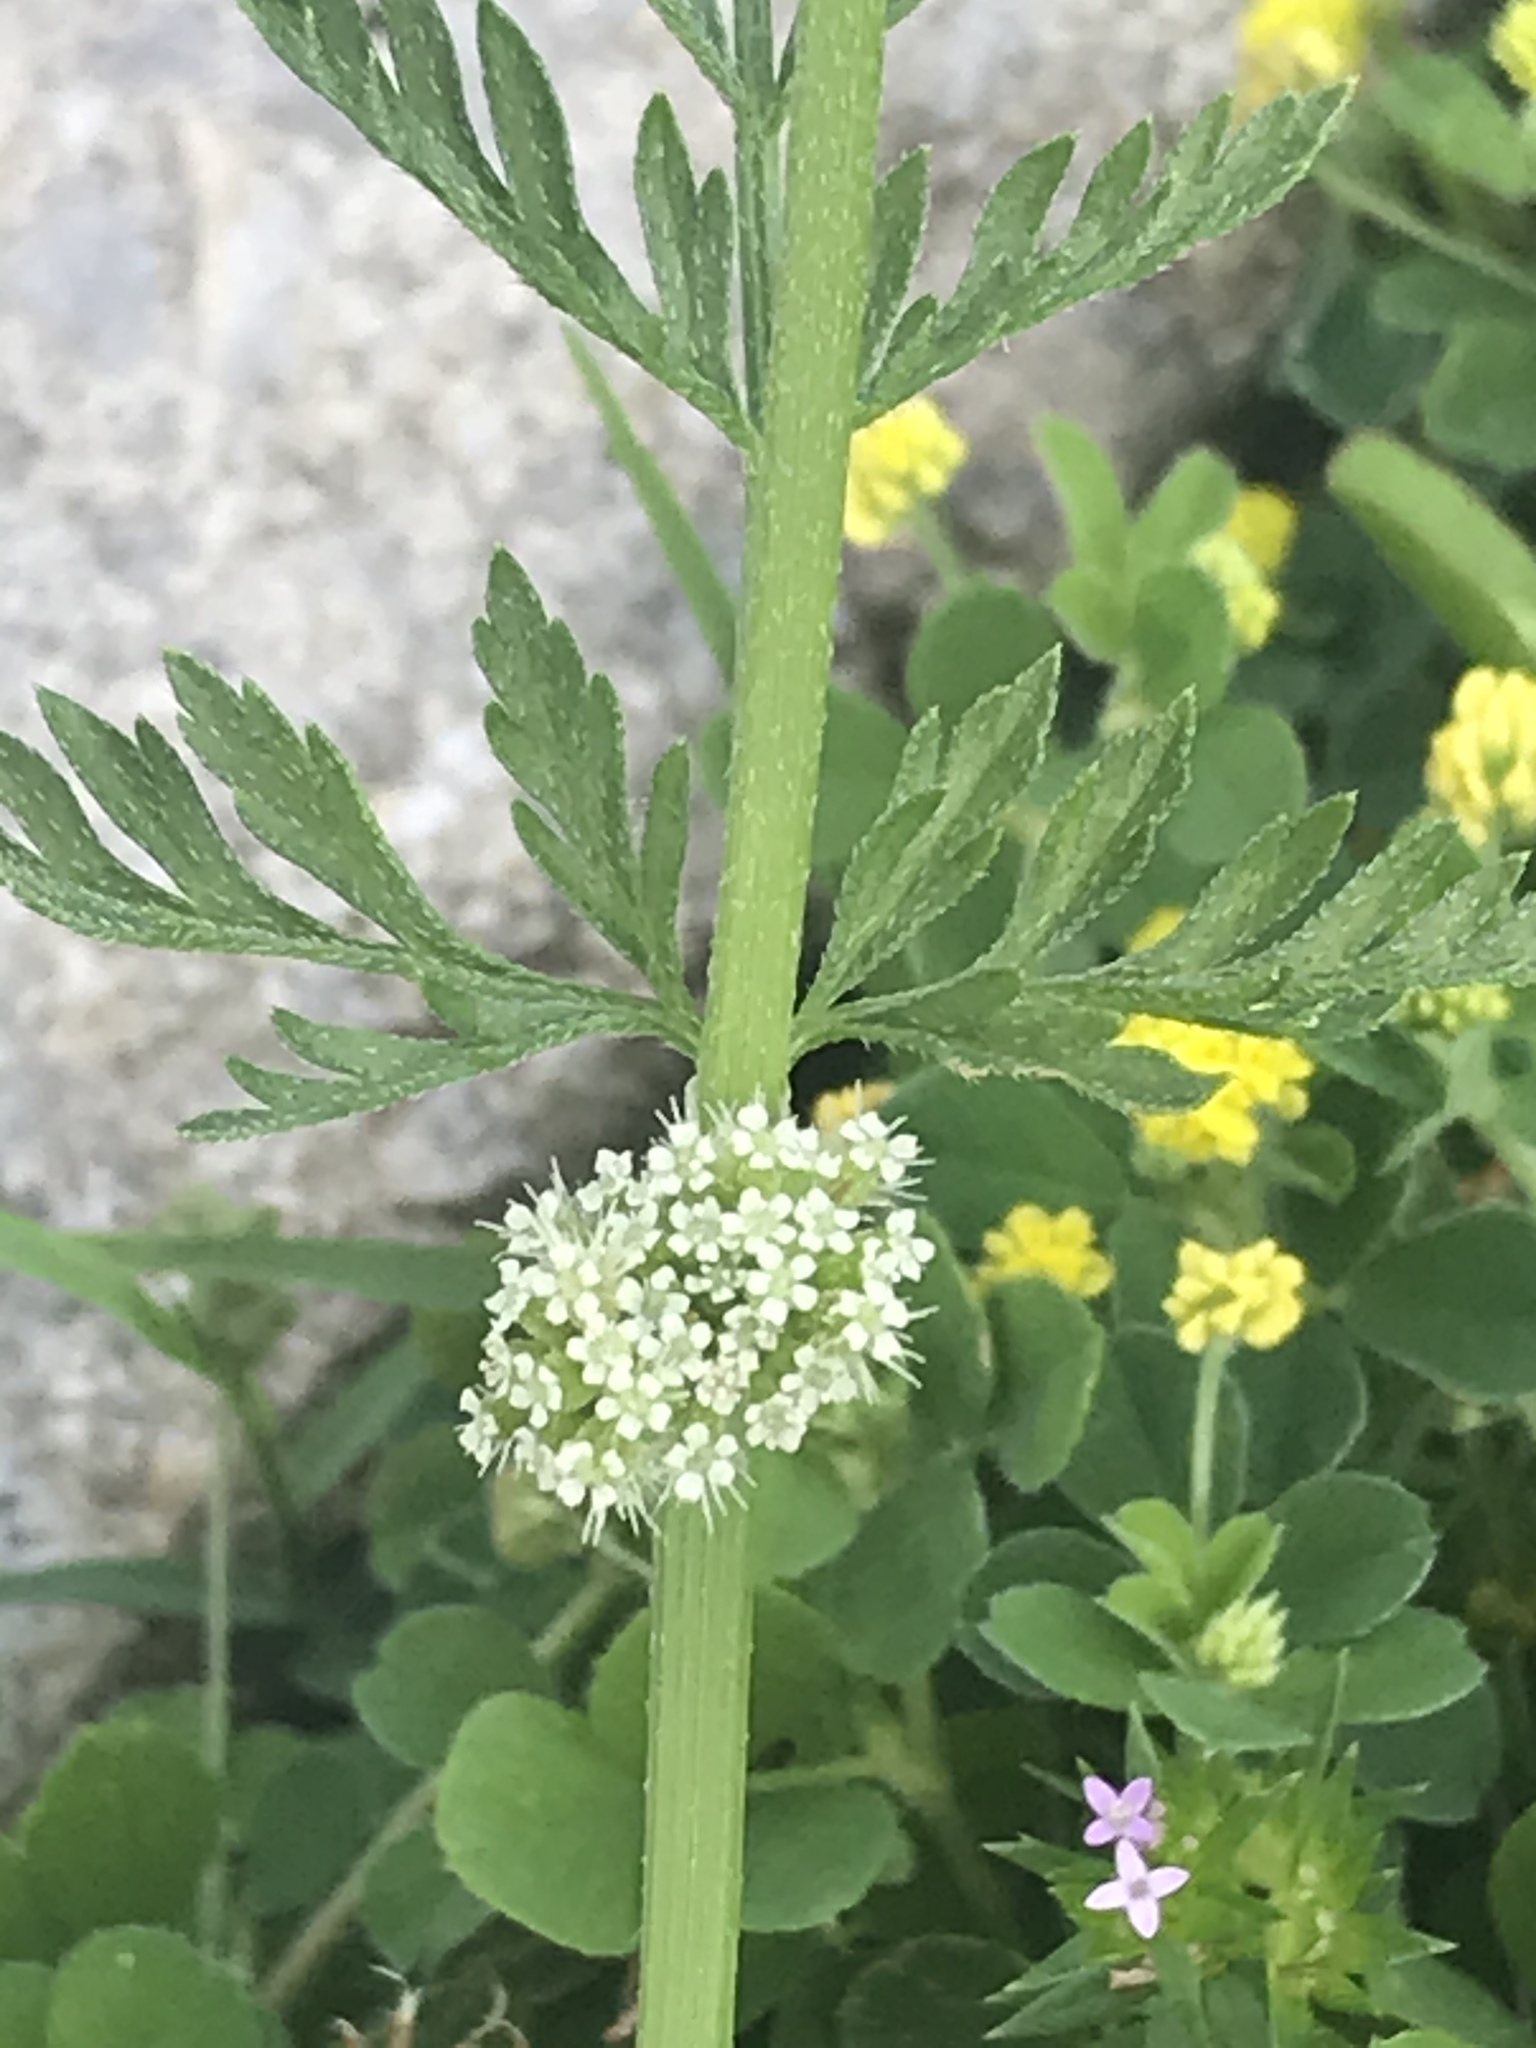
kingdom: Plantae
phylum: Tracheophyta
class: Magnoliopsida
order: Apiales
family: Apiaceae
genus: Torilis
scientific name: Torilis nodosa
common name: Knotted hedge-parsley
